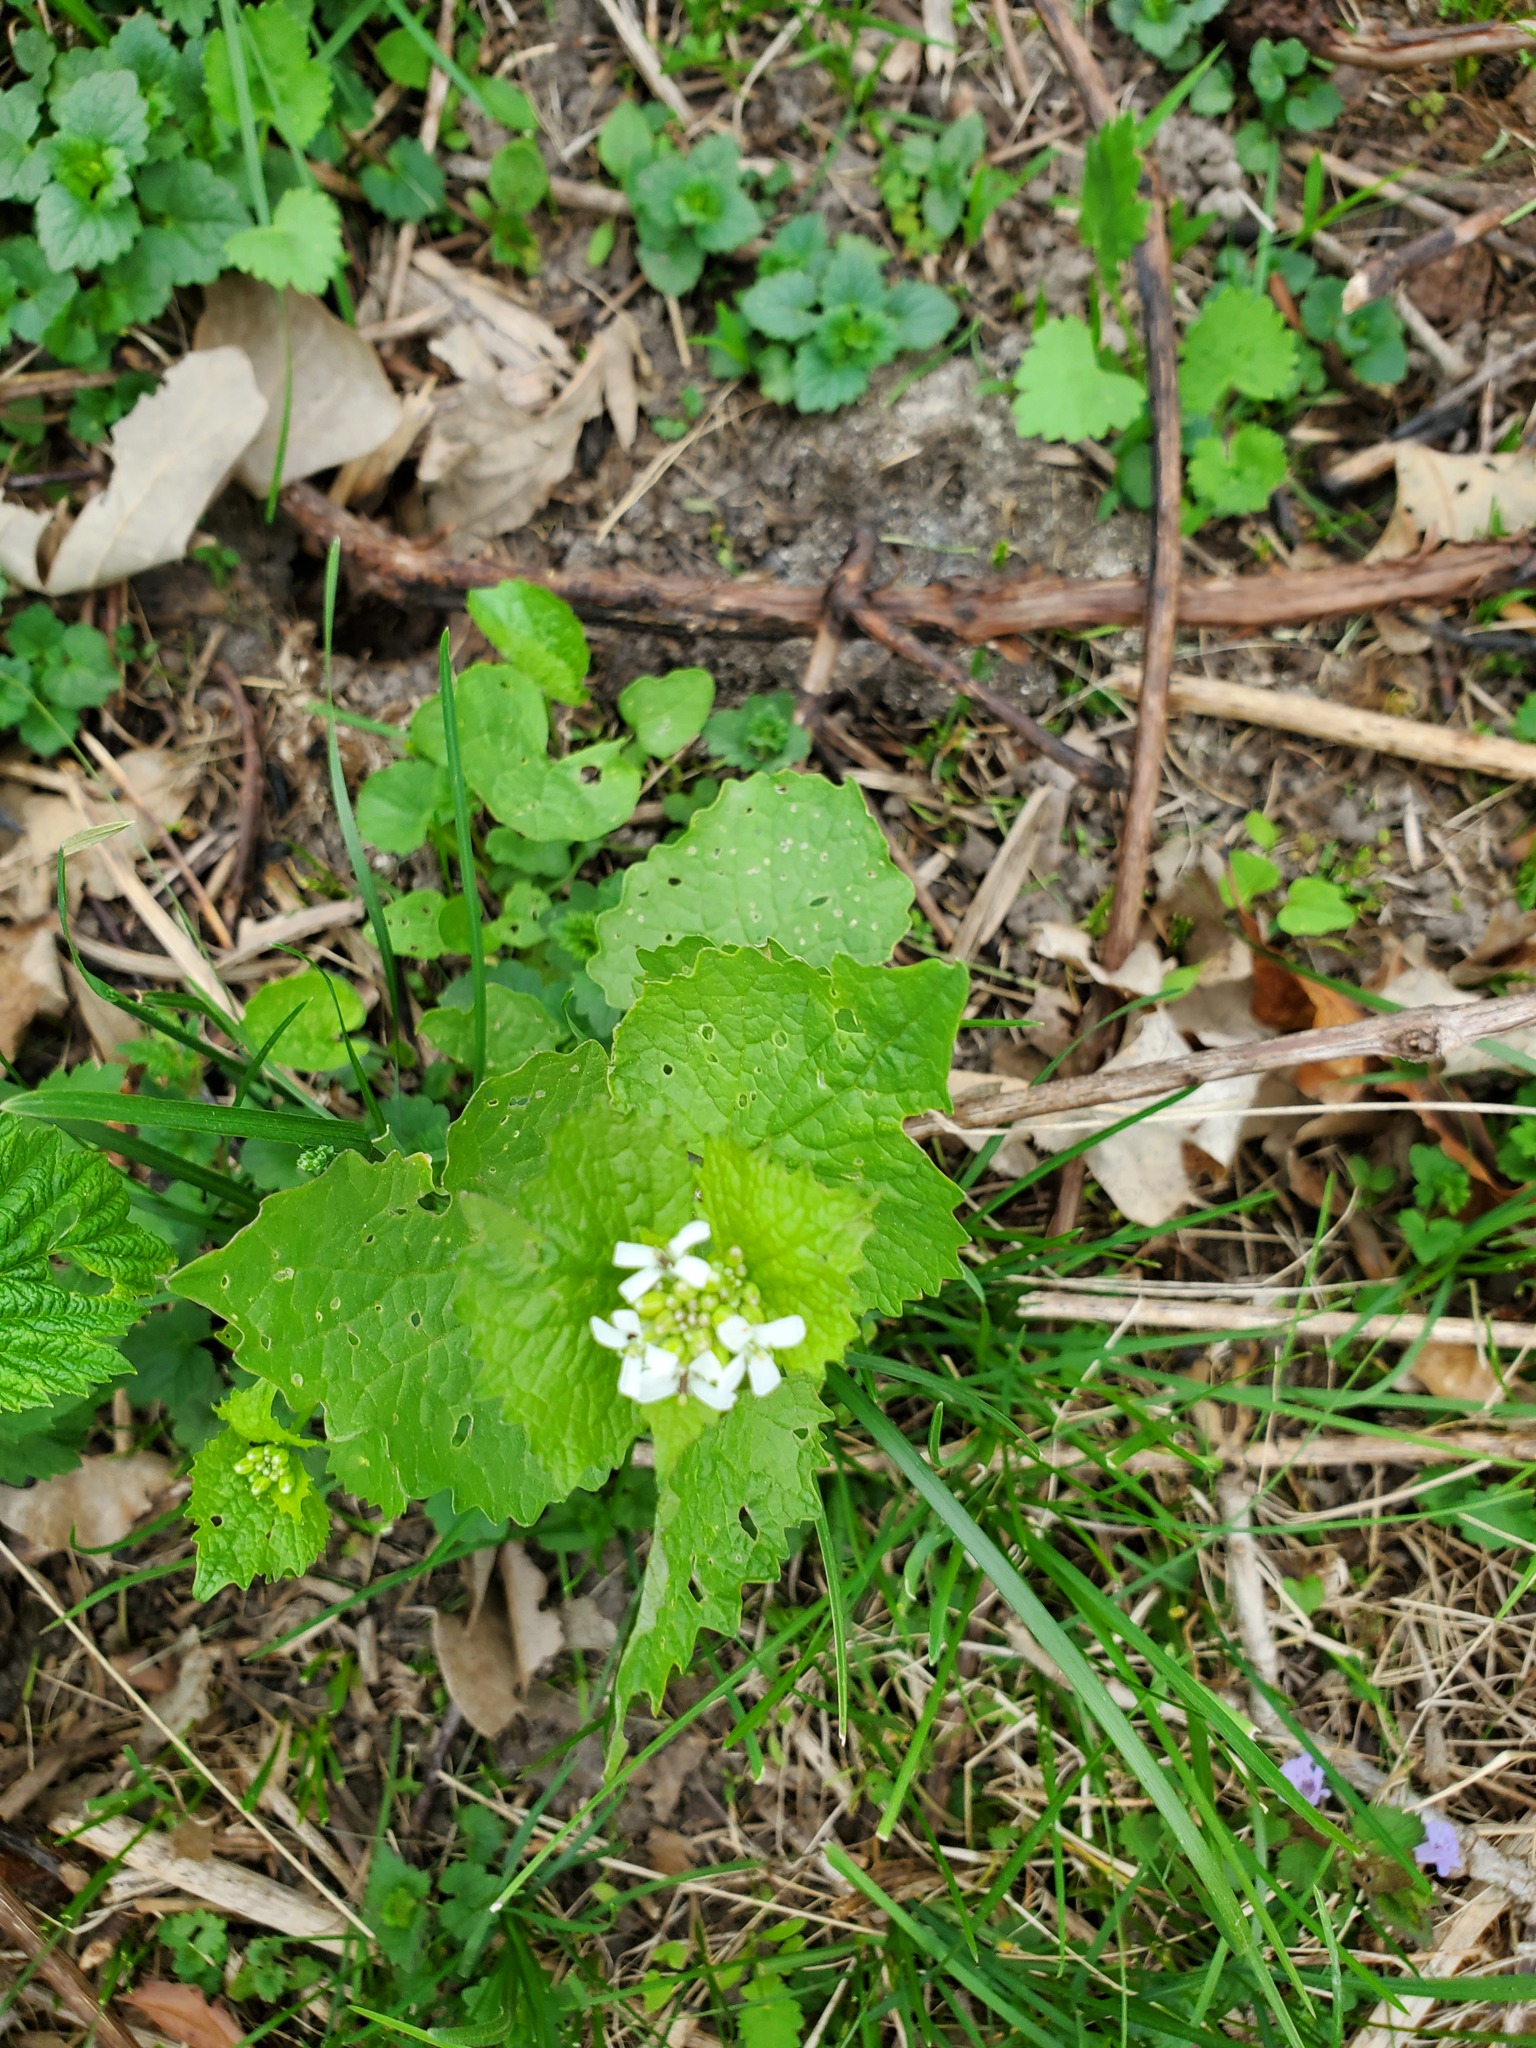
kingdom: Plantae
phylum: Tracheophyta
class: Magnoliopsida
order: Brassicales
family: Brassicaceae
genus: Alliaria
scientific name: Alliaria petiolata
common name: Garlic mustard
